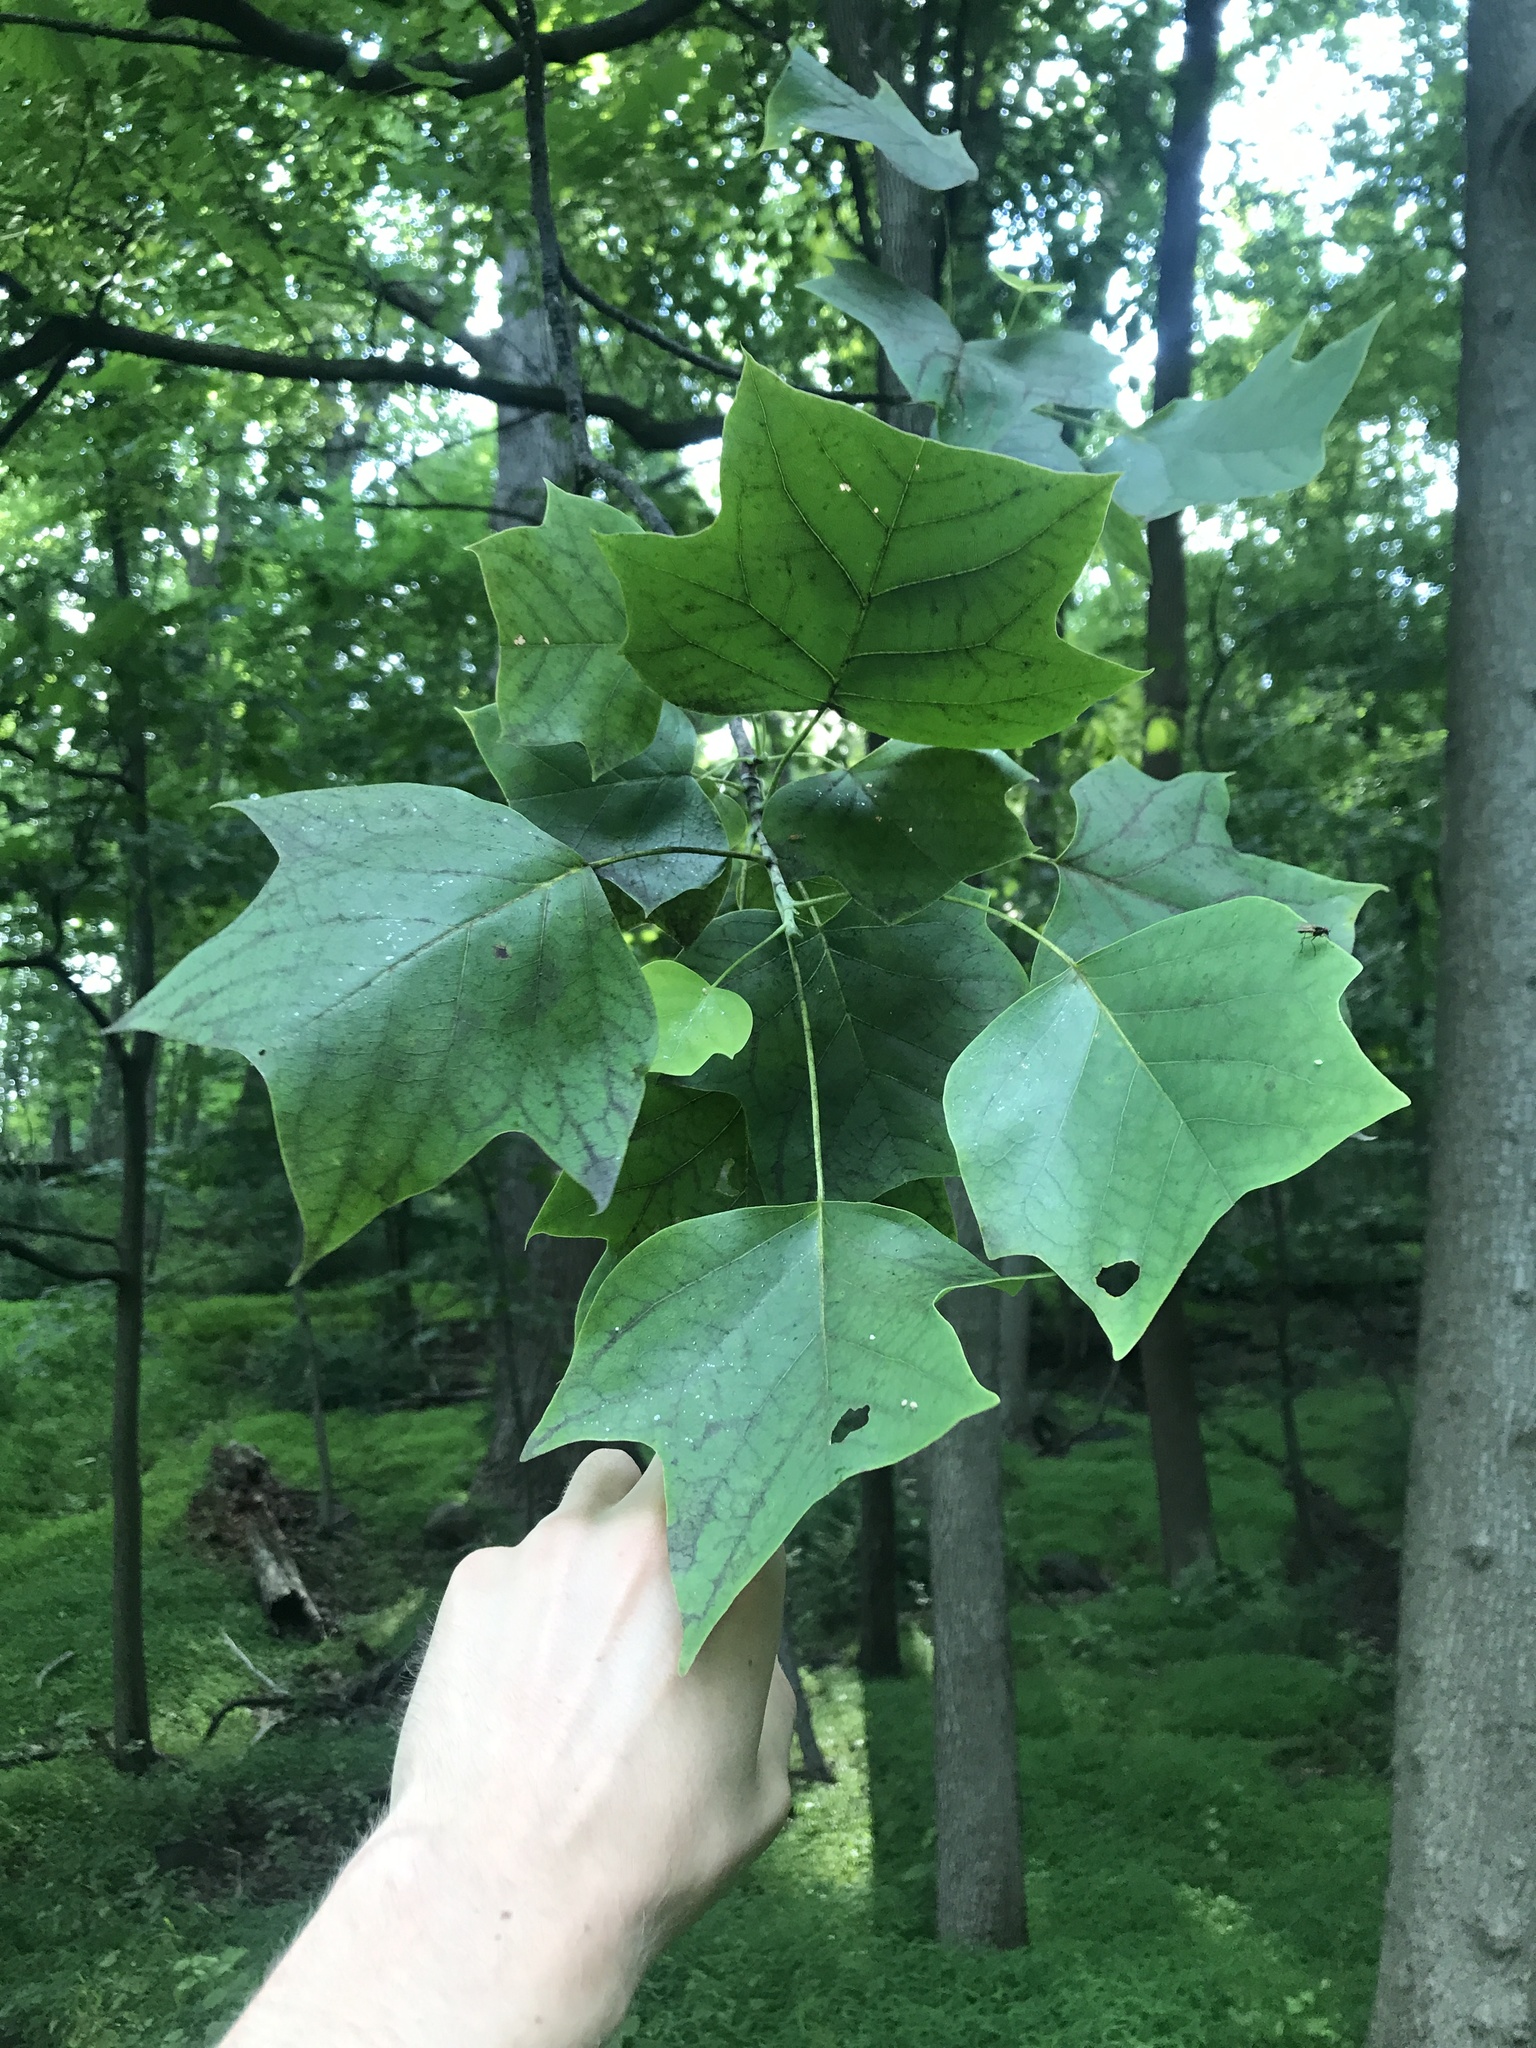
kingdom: Plantae
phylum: Tracheophyta
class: Magnoliopsida
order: Magnoliales
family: Magnoliaceae
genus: Liriodendron
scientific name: Liriodendron tulipifera
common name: Tulip tree
